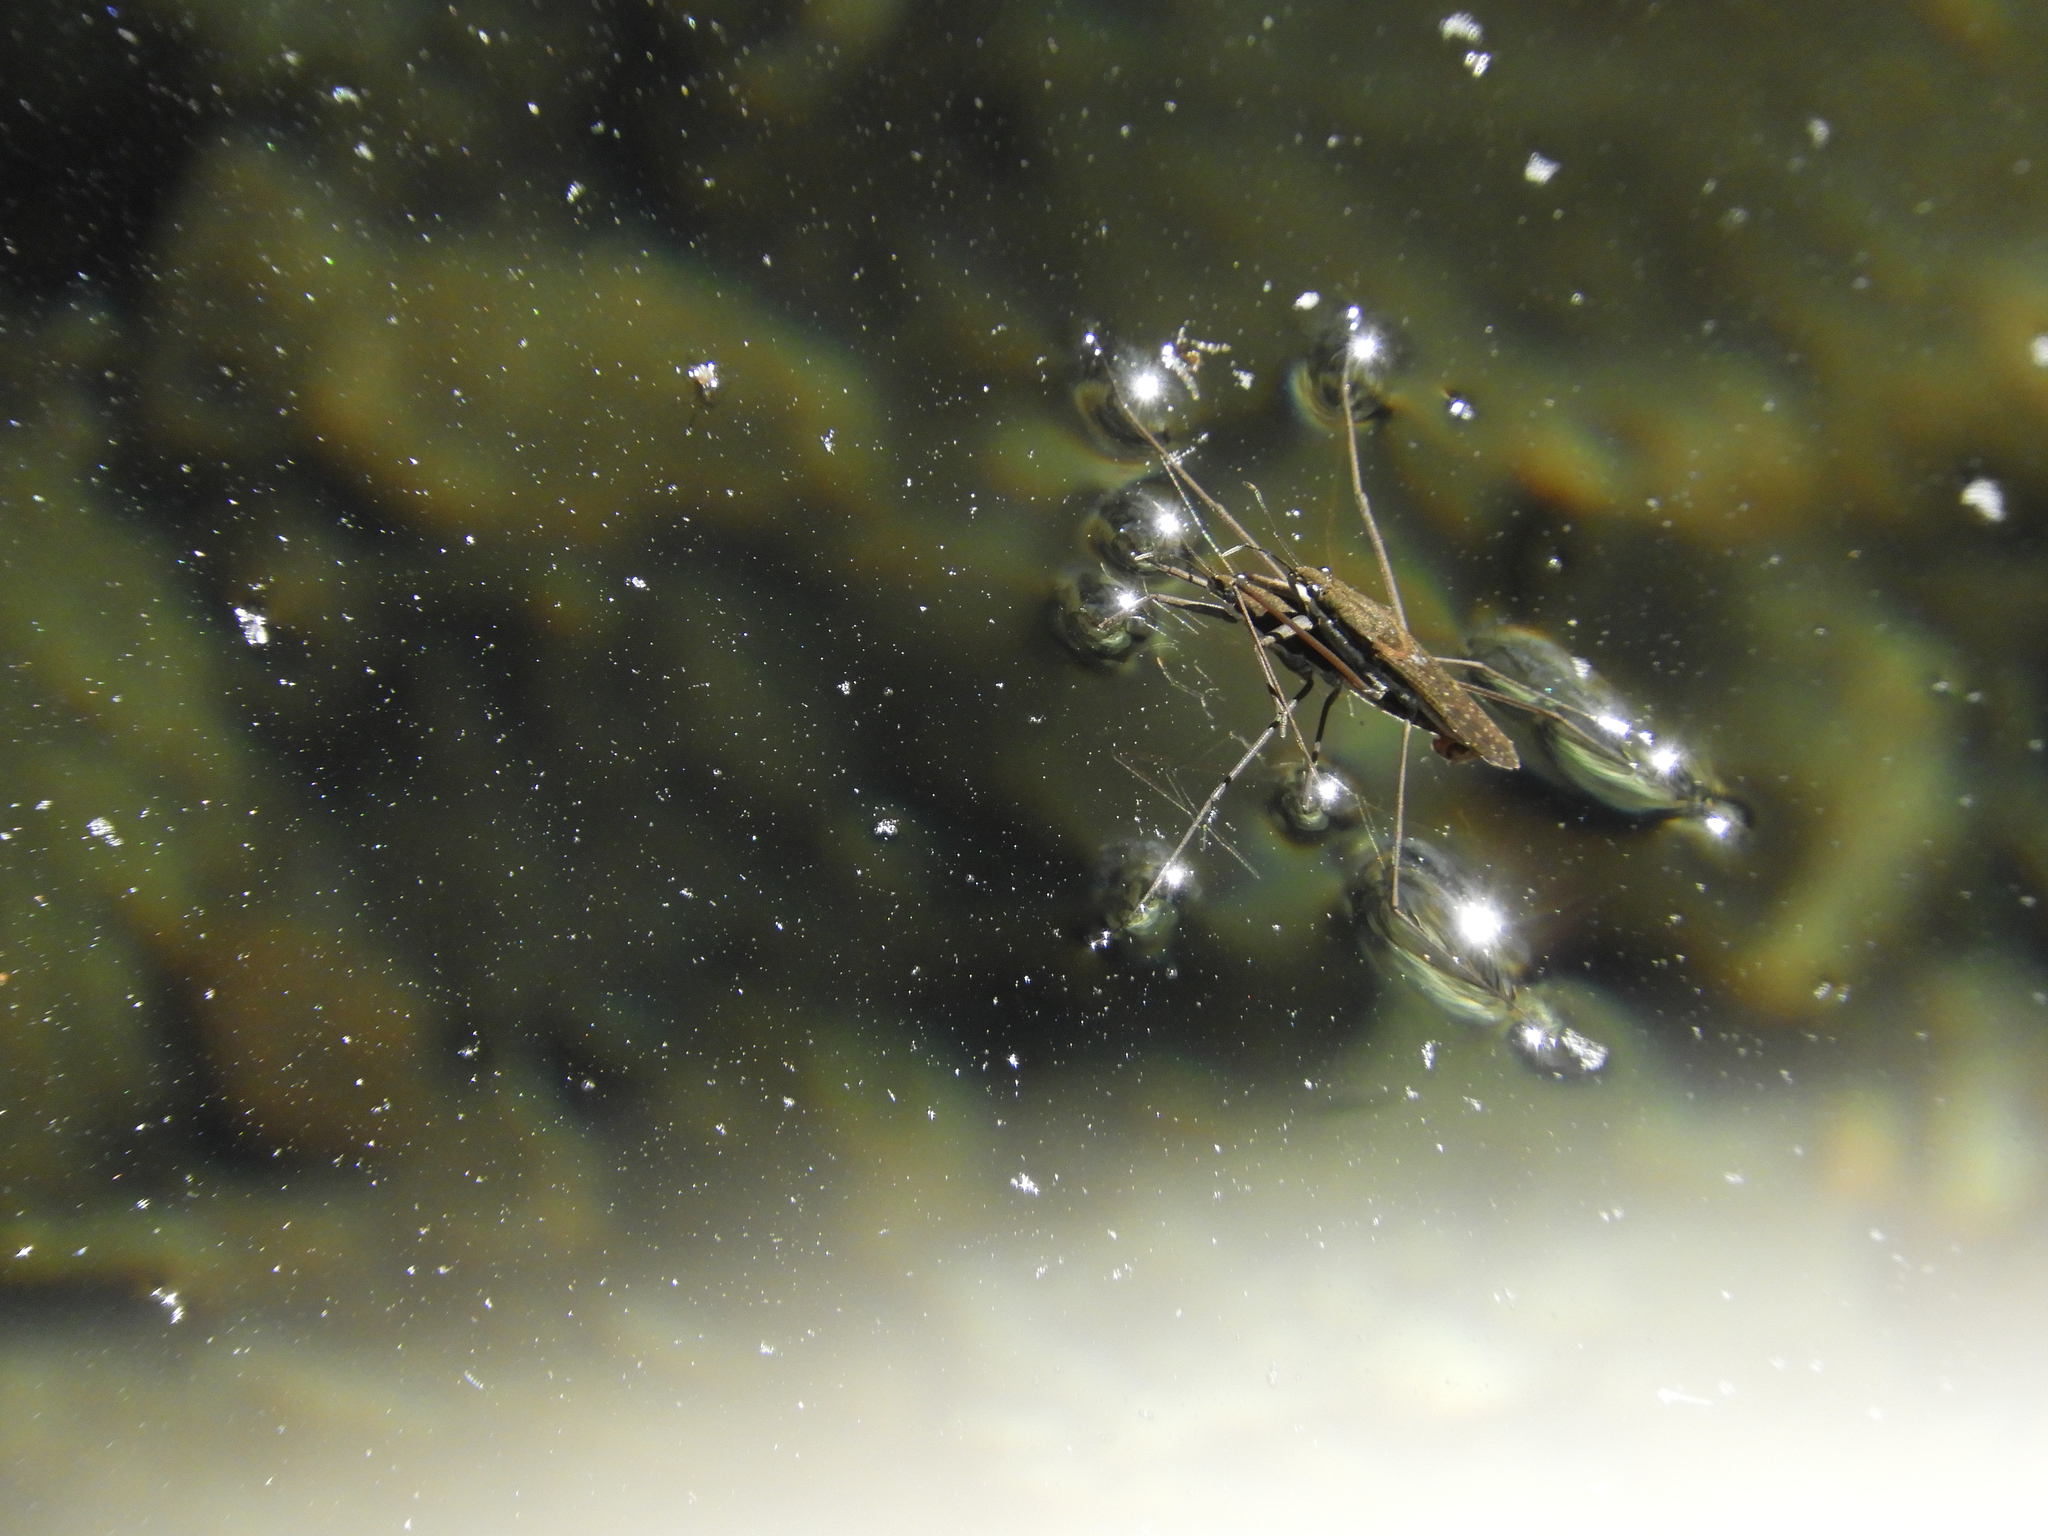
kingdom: Animalia
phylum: Arthropoda
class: Insecta
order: Hemiptera
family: Gerridae
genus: Aquarius
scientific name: Aquarius remigis
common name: Common water strider
